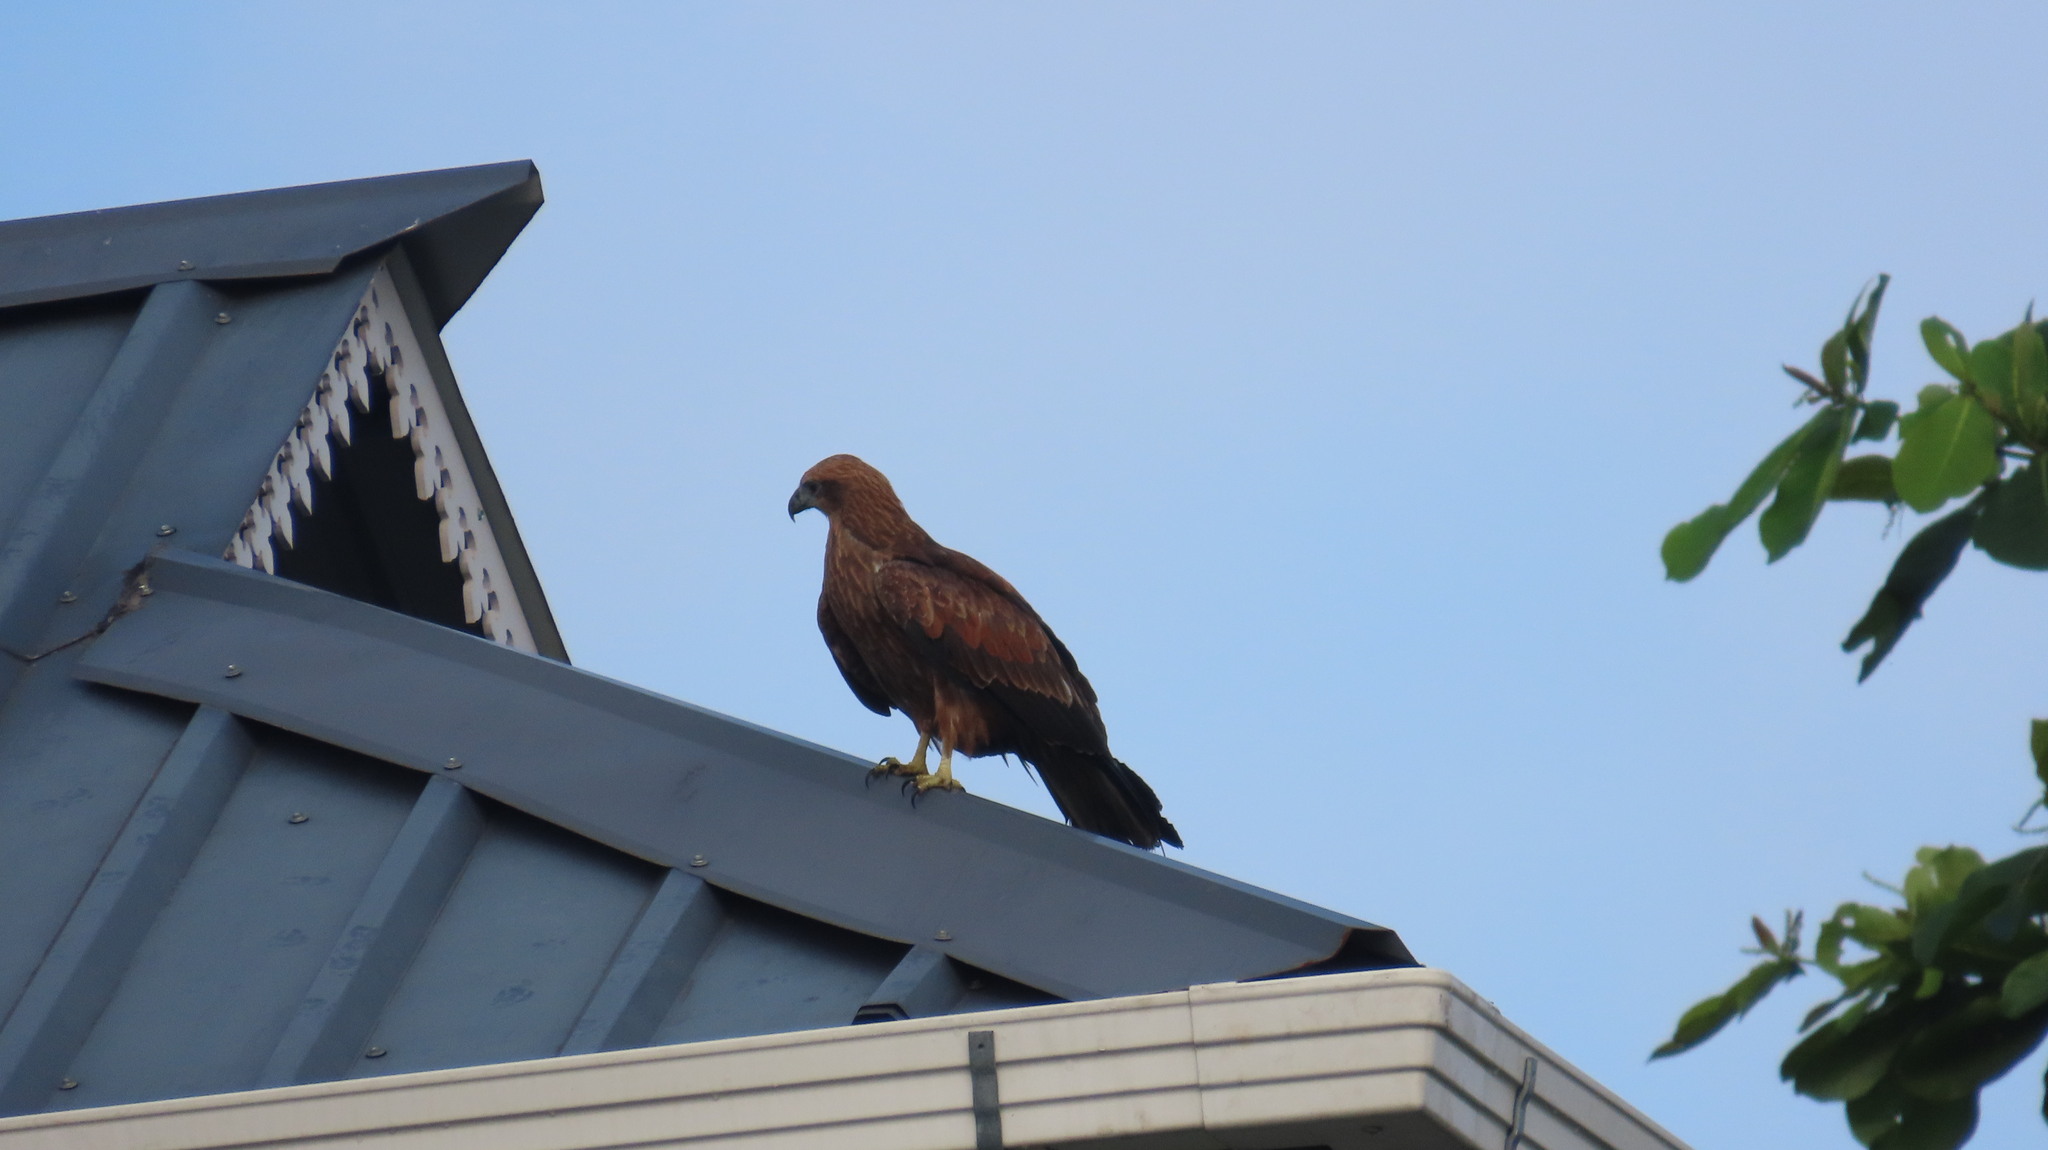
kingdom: Animalia
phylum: Chordata
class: Aves
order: Accipitriformes
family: Accipitridae
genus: Haliastur
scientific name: Haliastur indus
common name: Brahminy kite
